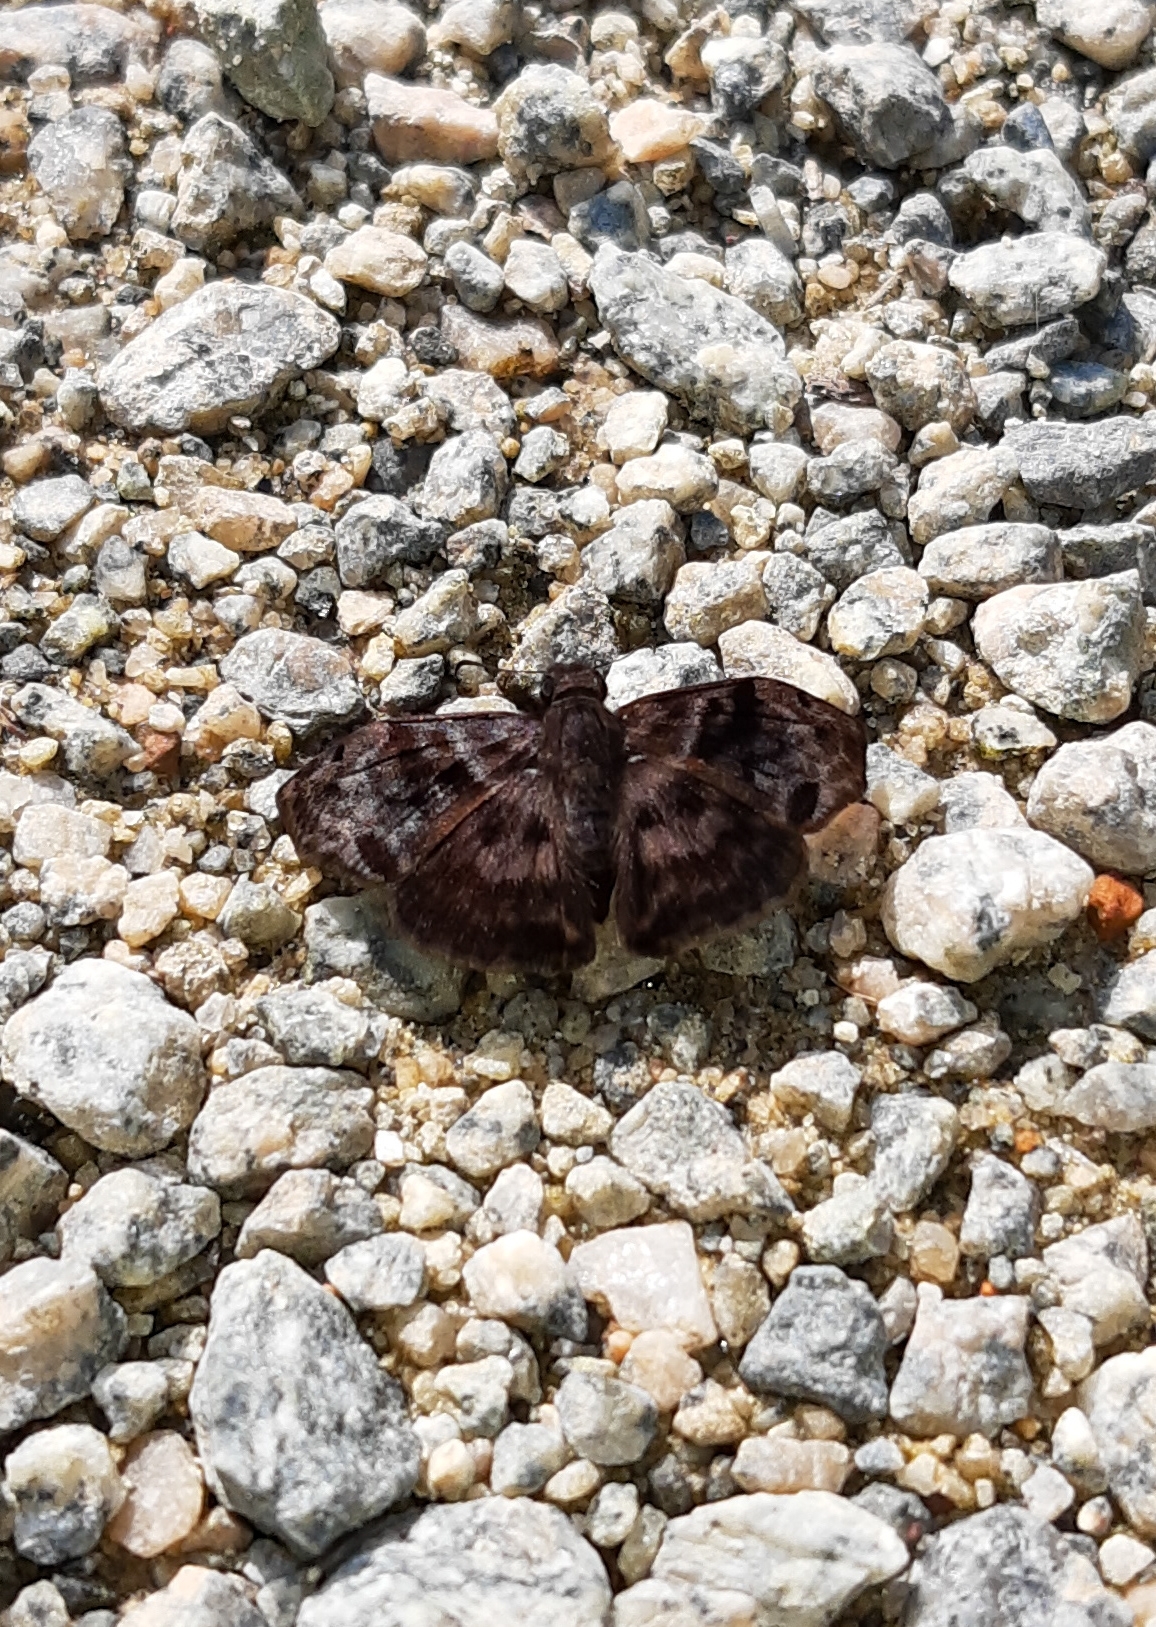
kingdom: Animalia
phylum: Arthropoda
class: Insecta
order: Lepidoptera
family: Hesperiidae
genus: Ebrietas
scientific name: Ebrietas anacreon
